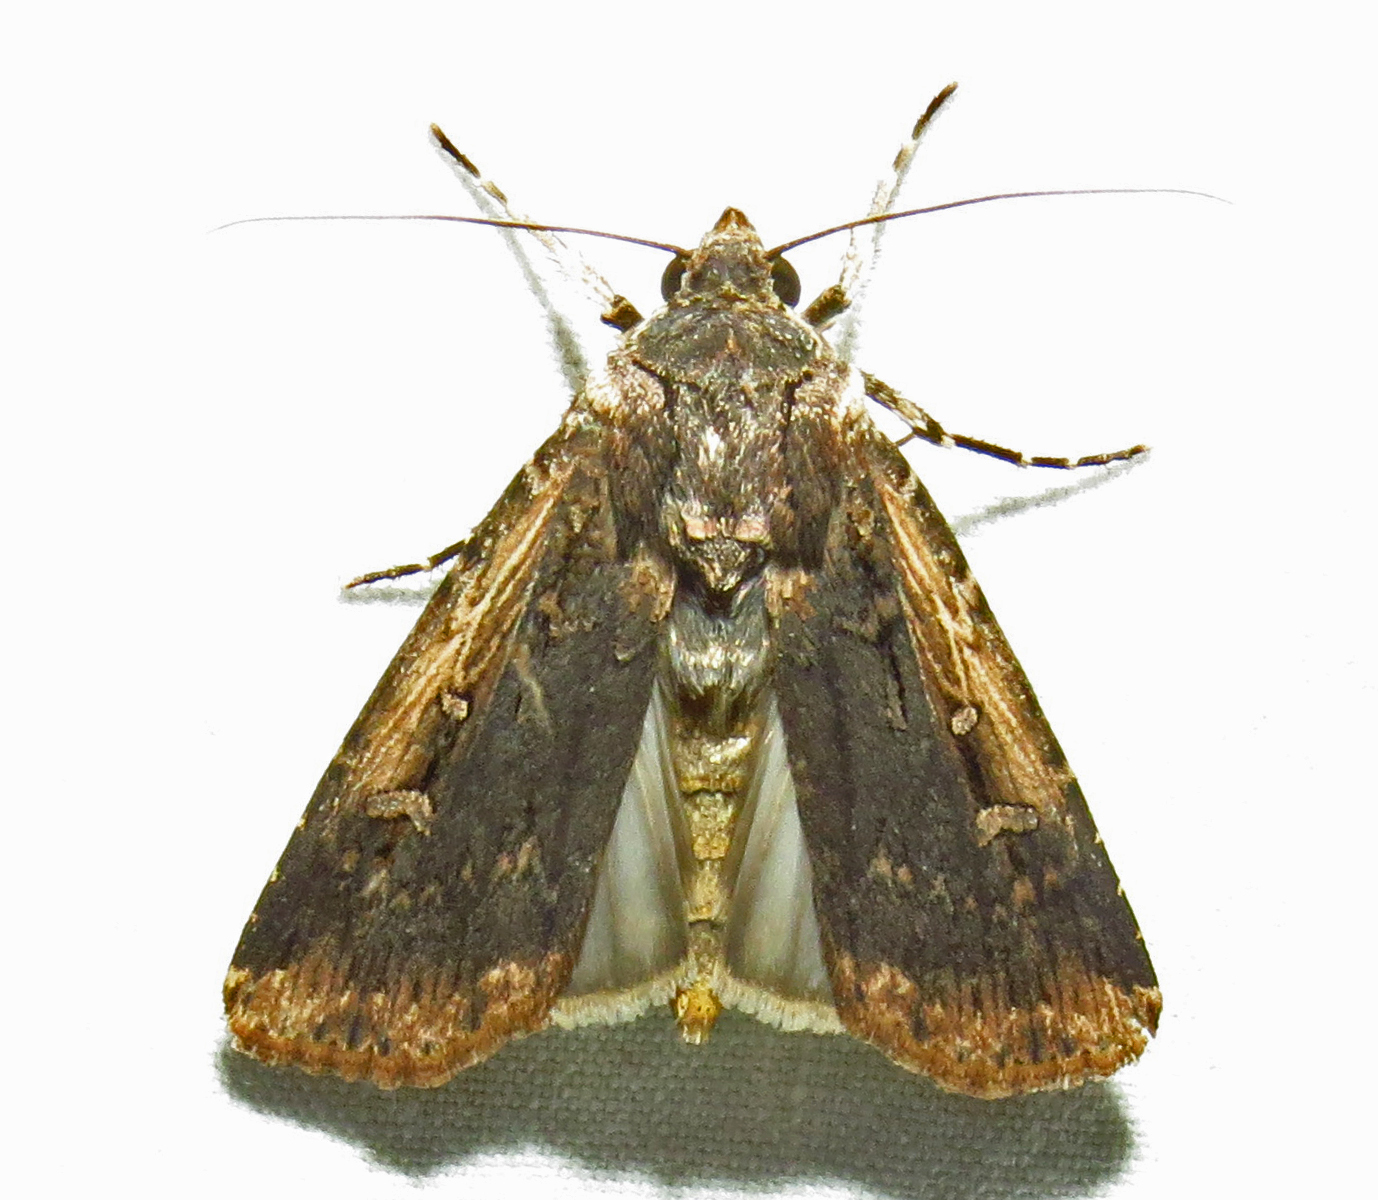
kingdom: Animalia
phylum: Arthropoda
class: Insecta
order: Lepidoptera
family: Noctuidae
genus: Feltia
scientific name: Feltia subterranea
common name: Granulate cutworm
